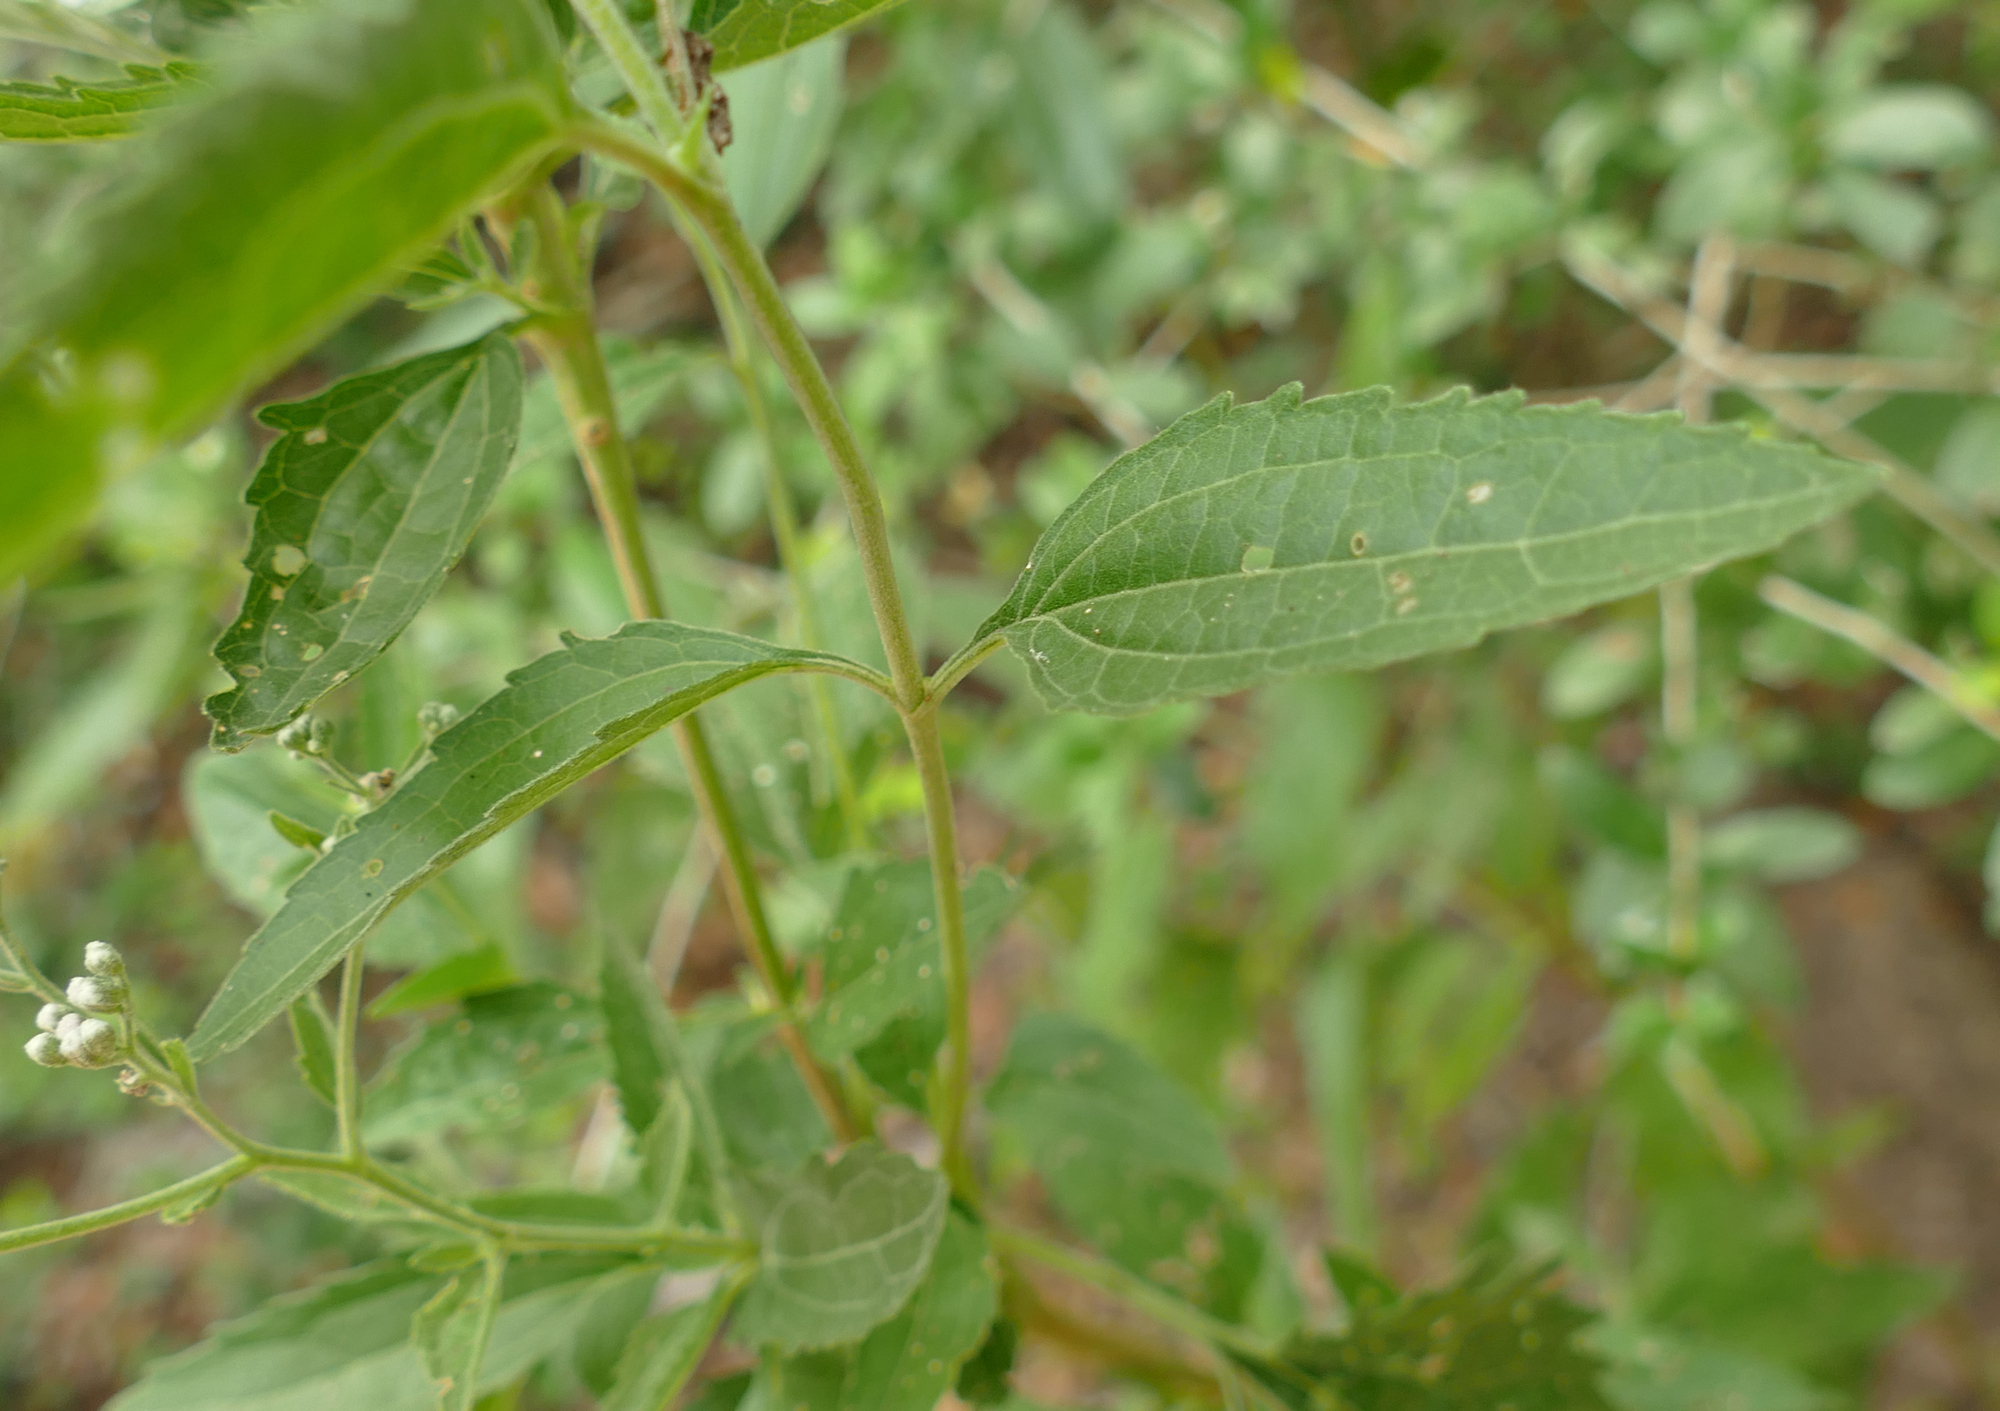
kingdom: Plantae
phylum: Tracheophyta
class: Magnoliopsida
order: Asterales
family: Asteraceae
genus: Eupatorium
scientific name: Eupatorium serotinum
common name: Late boneset
